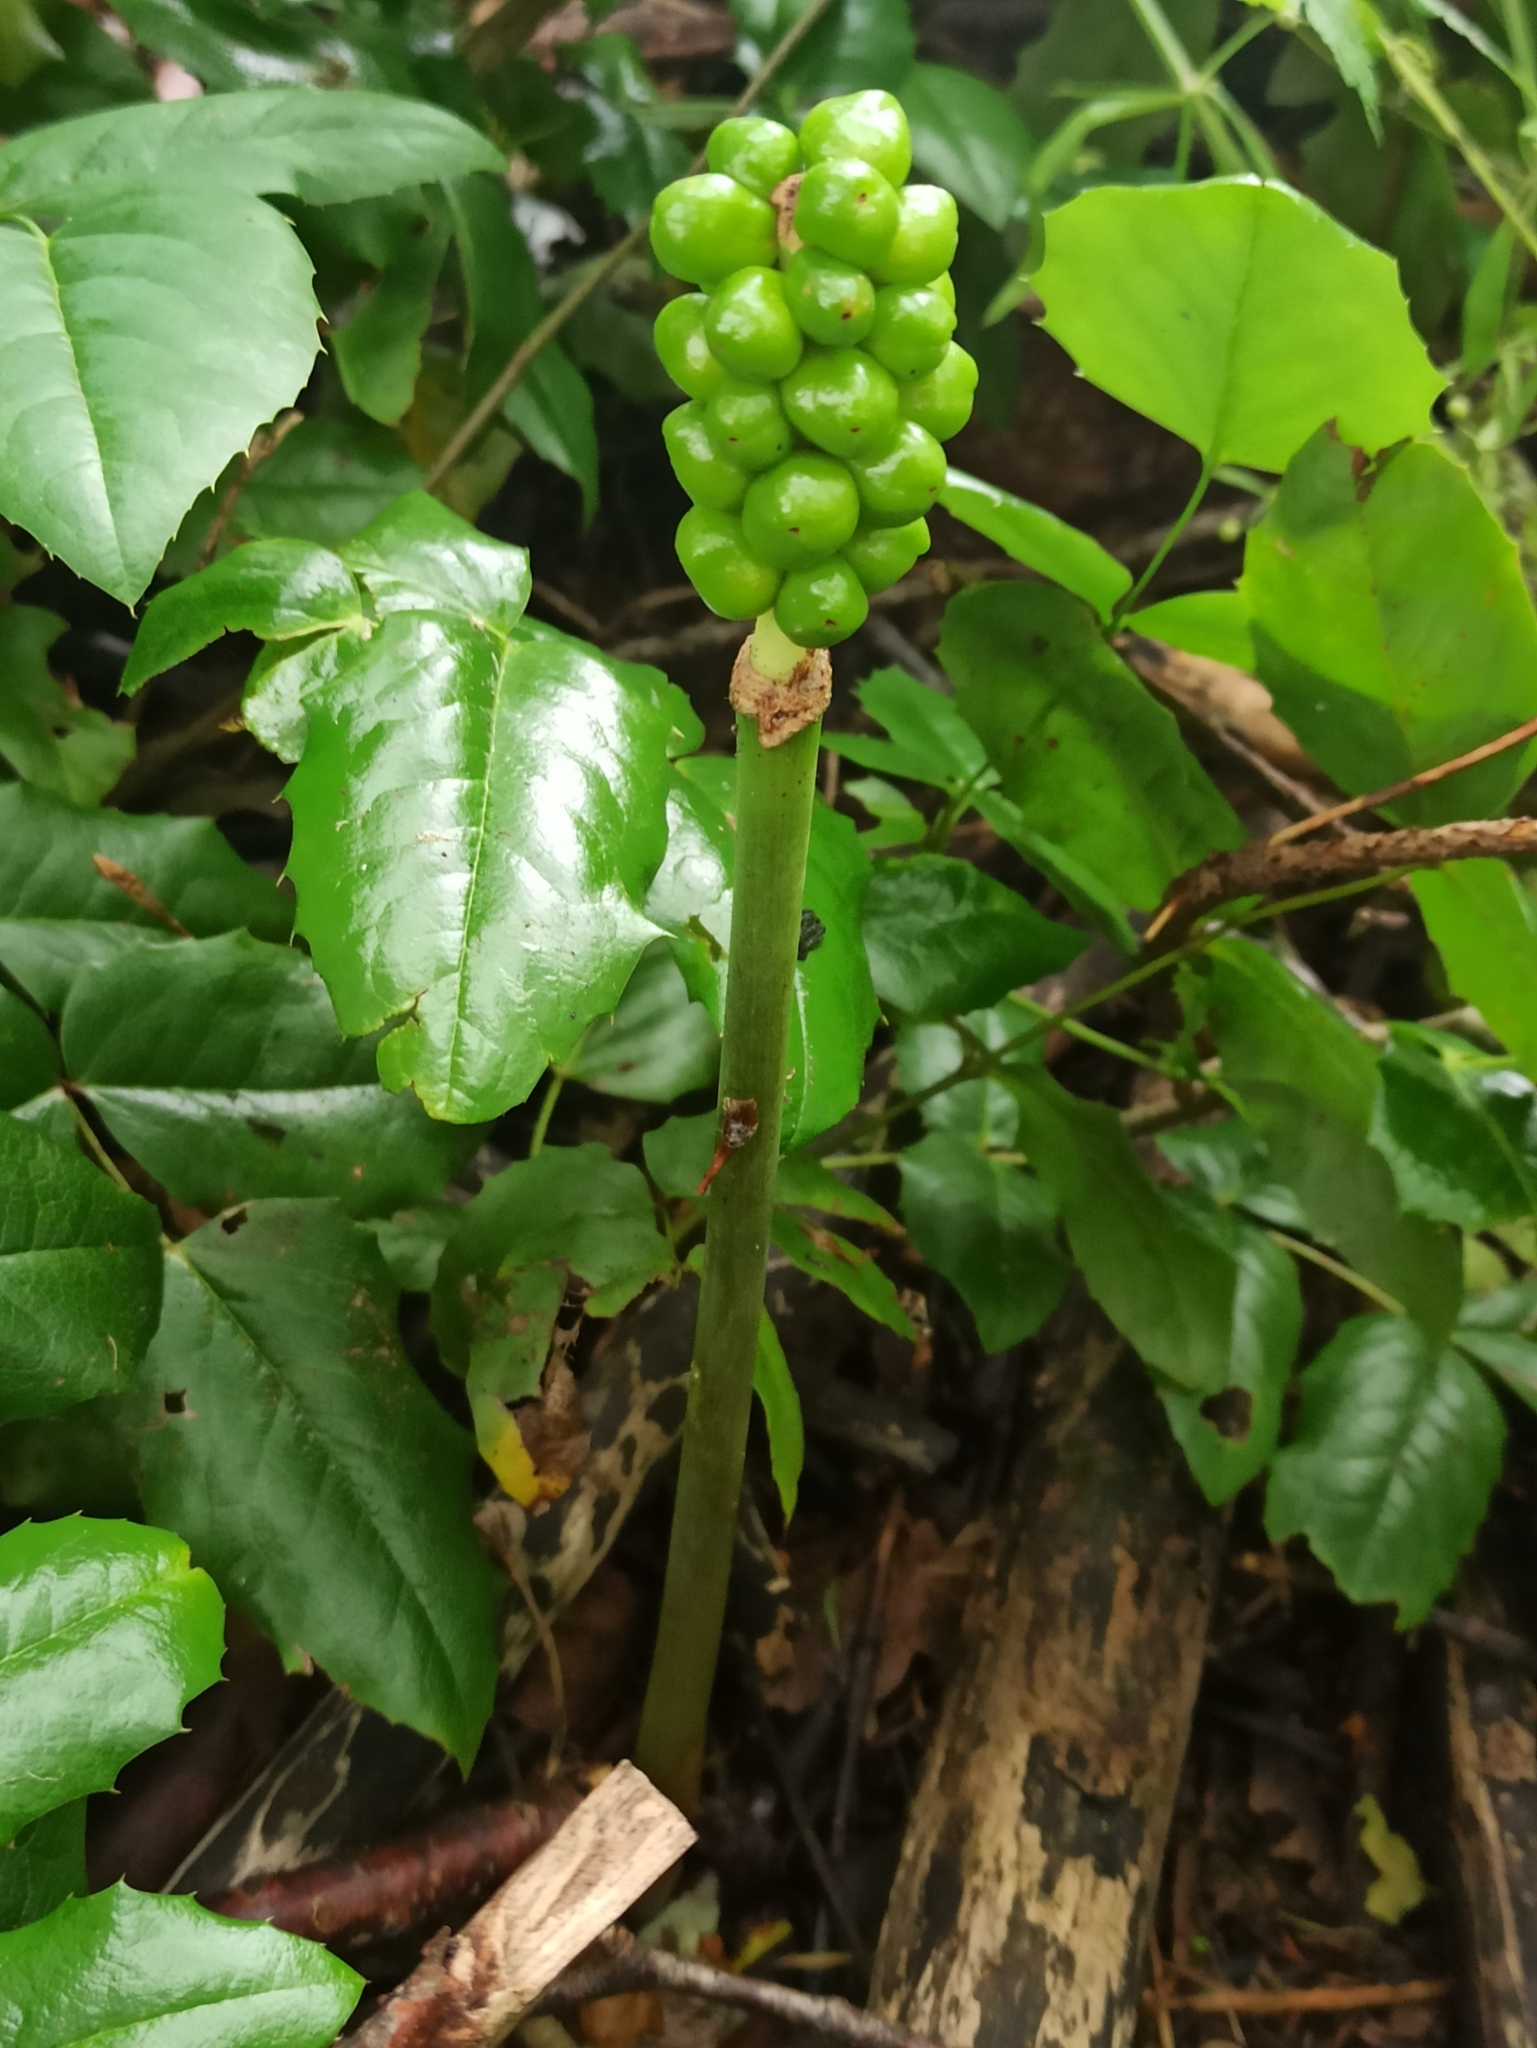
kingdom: Plantae
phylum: Tracheophyta
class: Liliopsida
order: Alismatales
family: Araceae
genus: Arum
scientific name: Arum maculatum
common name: Lords-and-ladies
